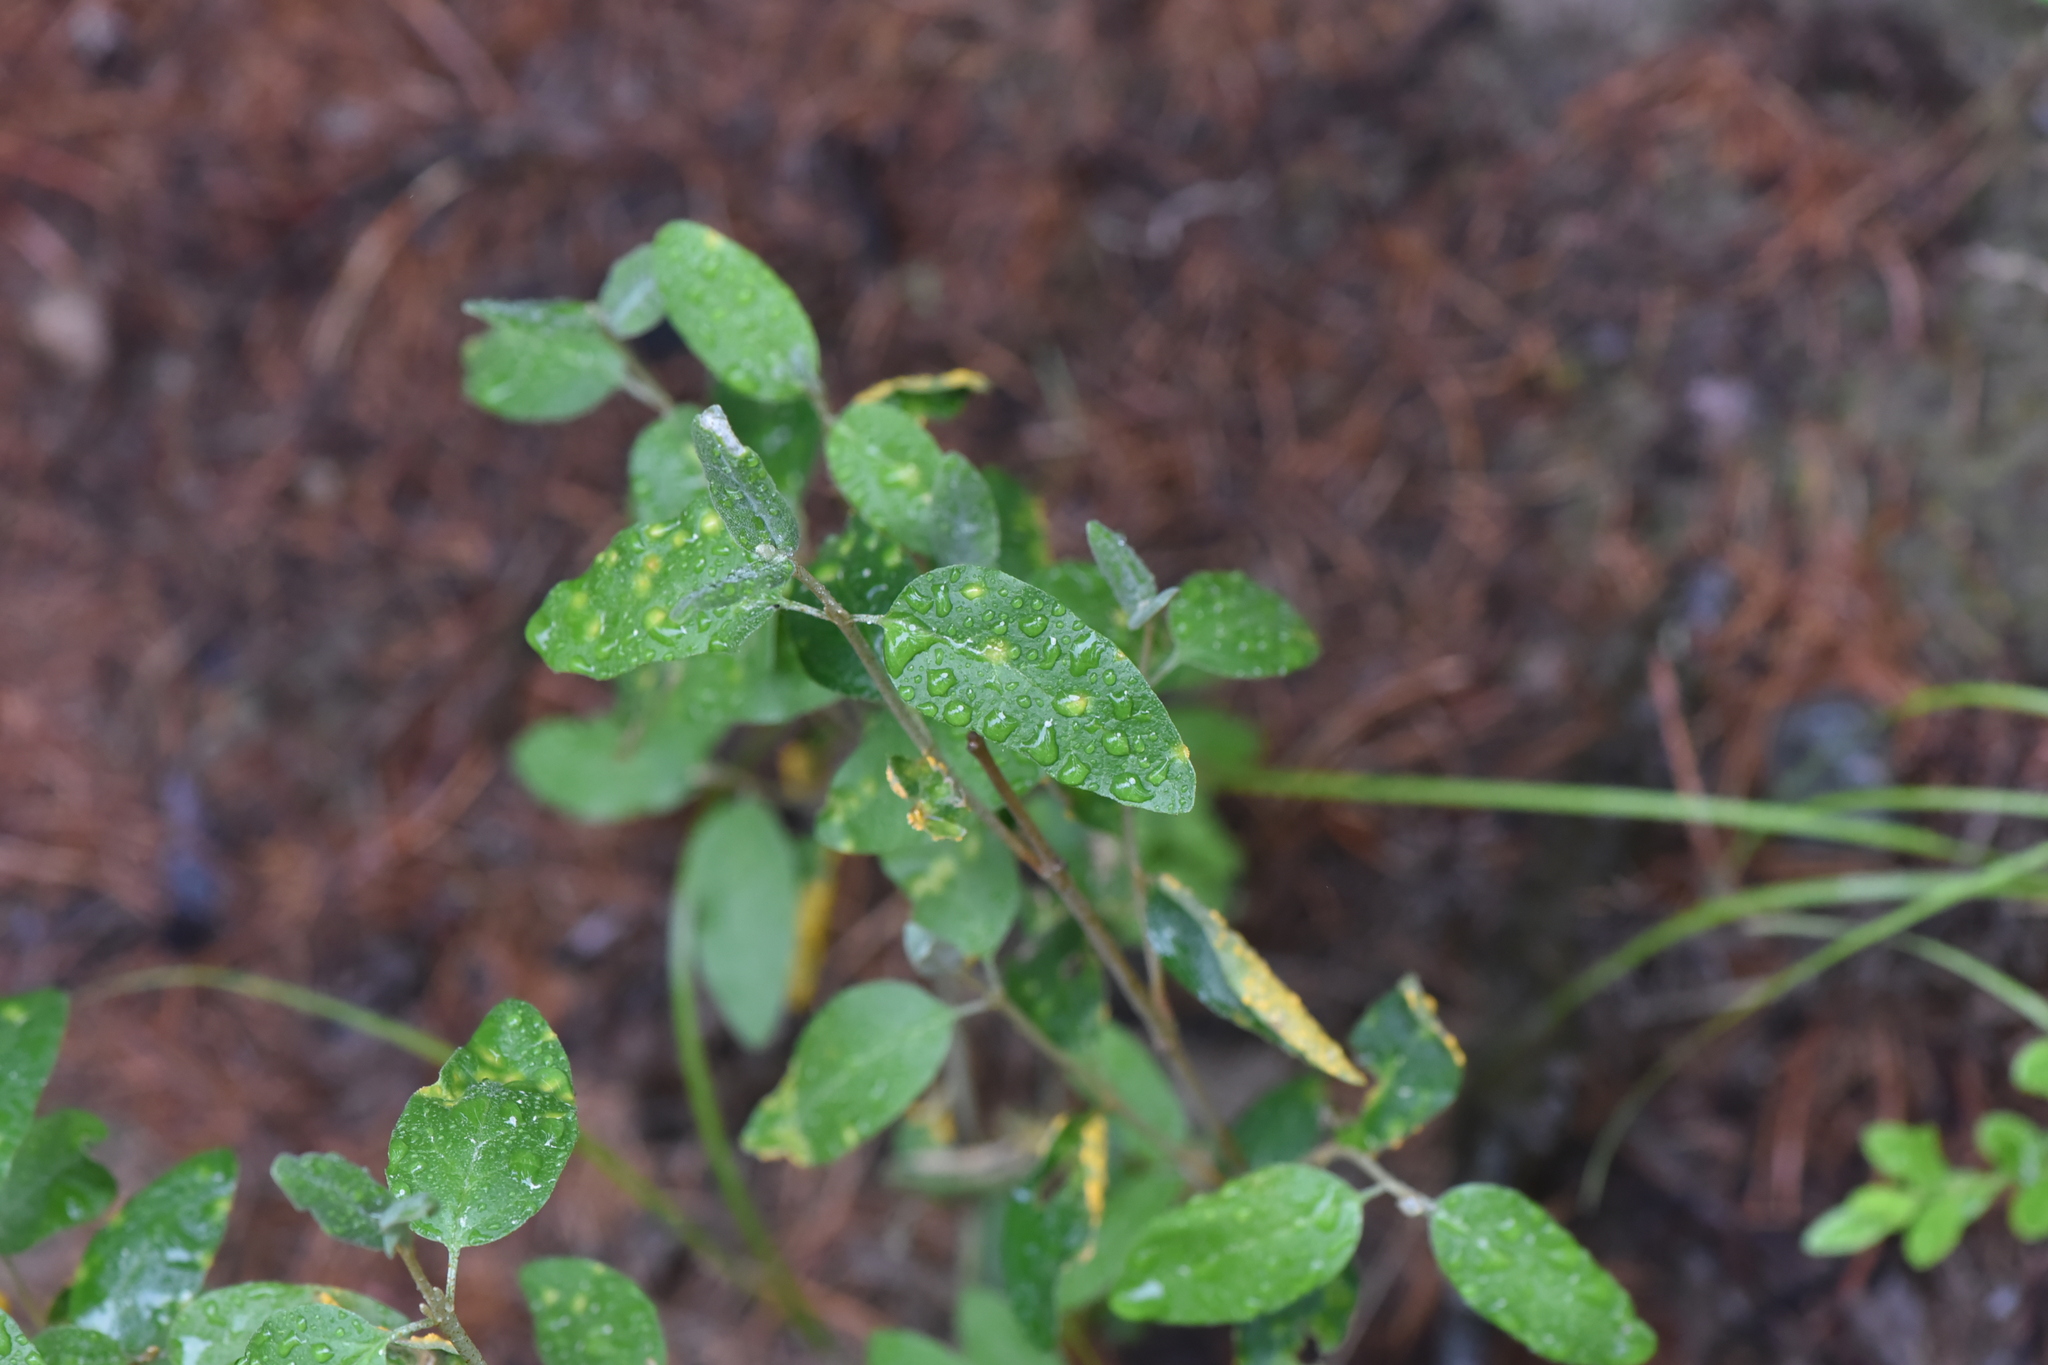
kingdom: Plantae
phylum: Tracheophyta
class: Magnoliopsida
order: Rosales
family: Elaeagnaceae
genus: Shepherdia
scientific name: Shepherdia canadensis
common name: Soapberry
